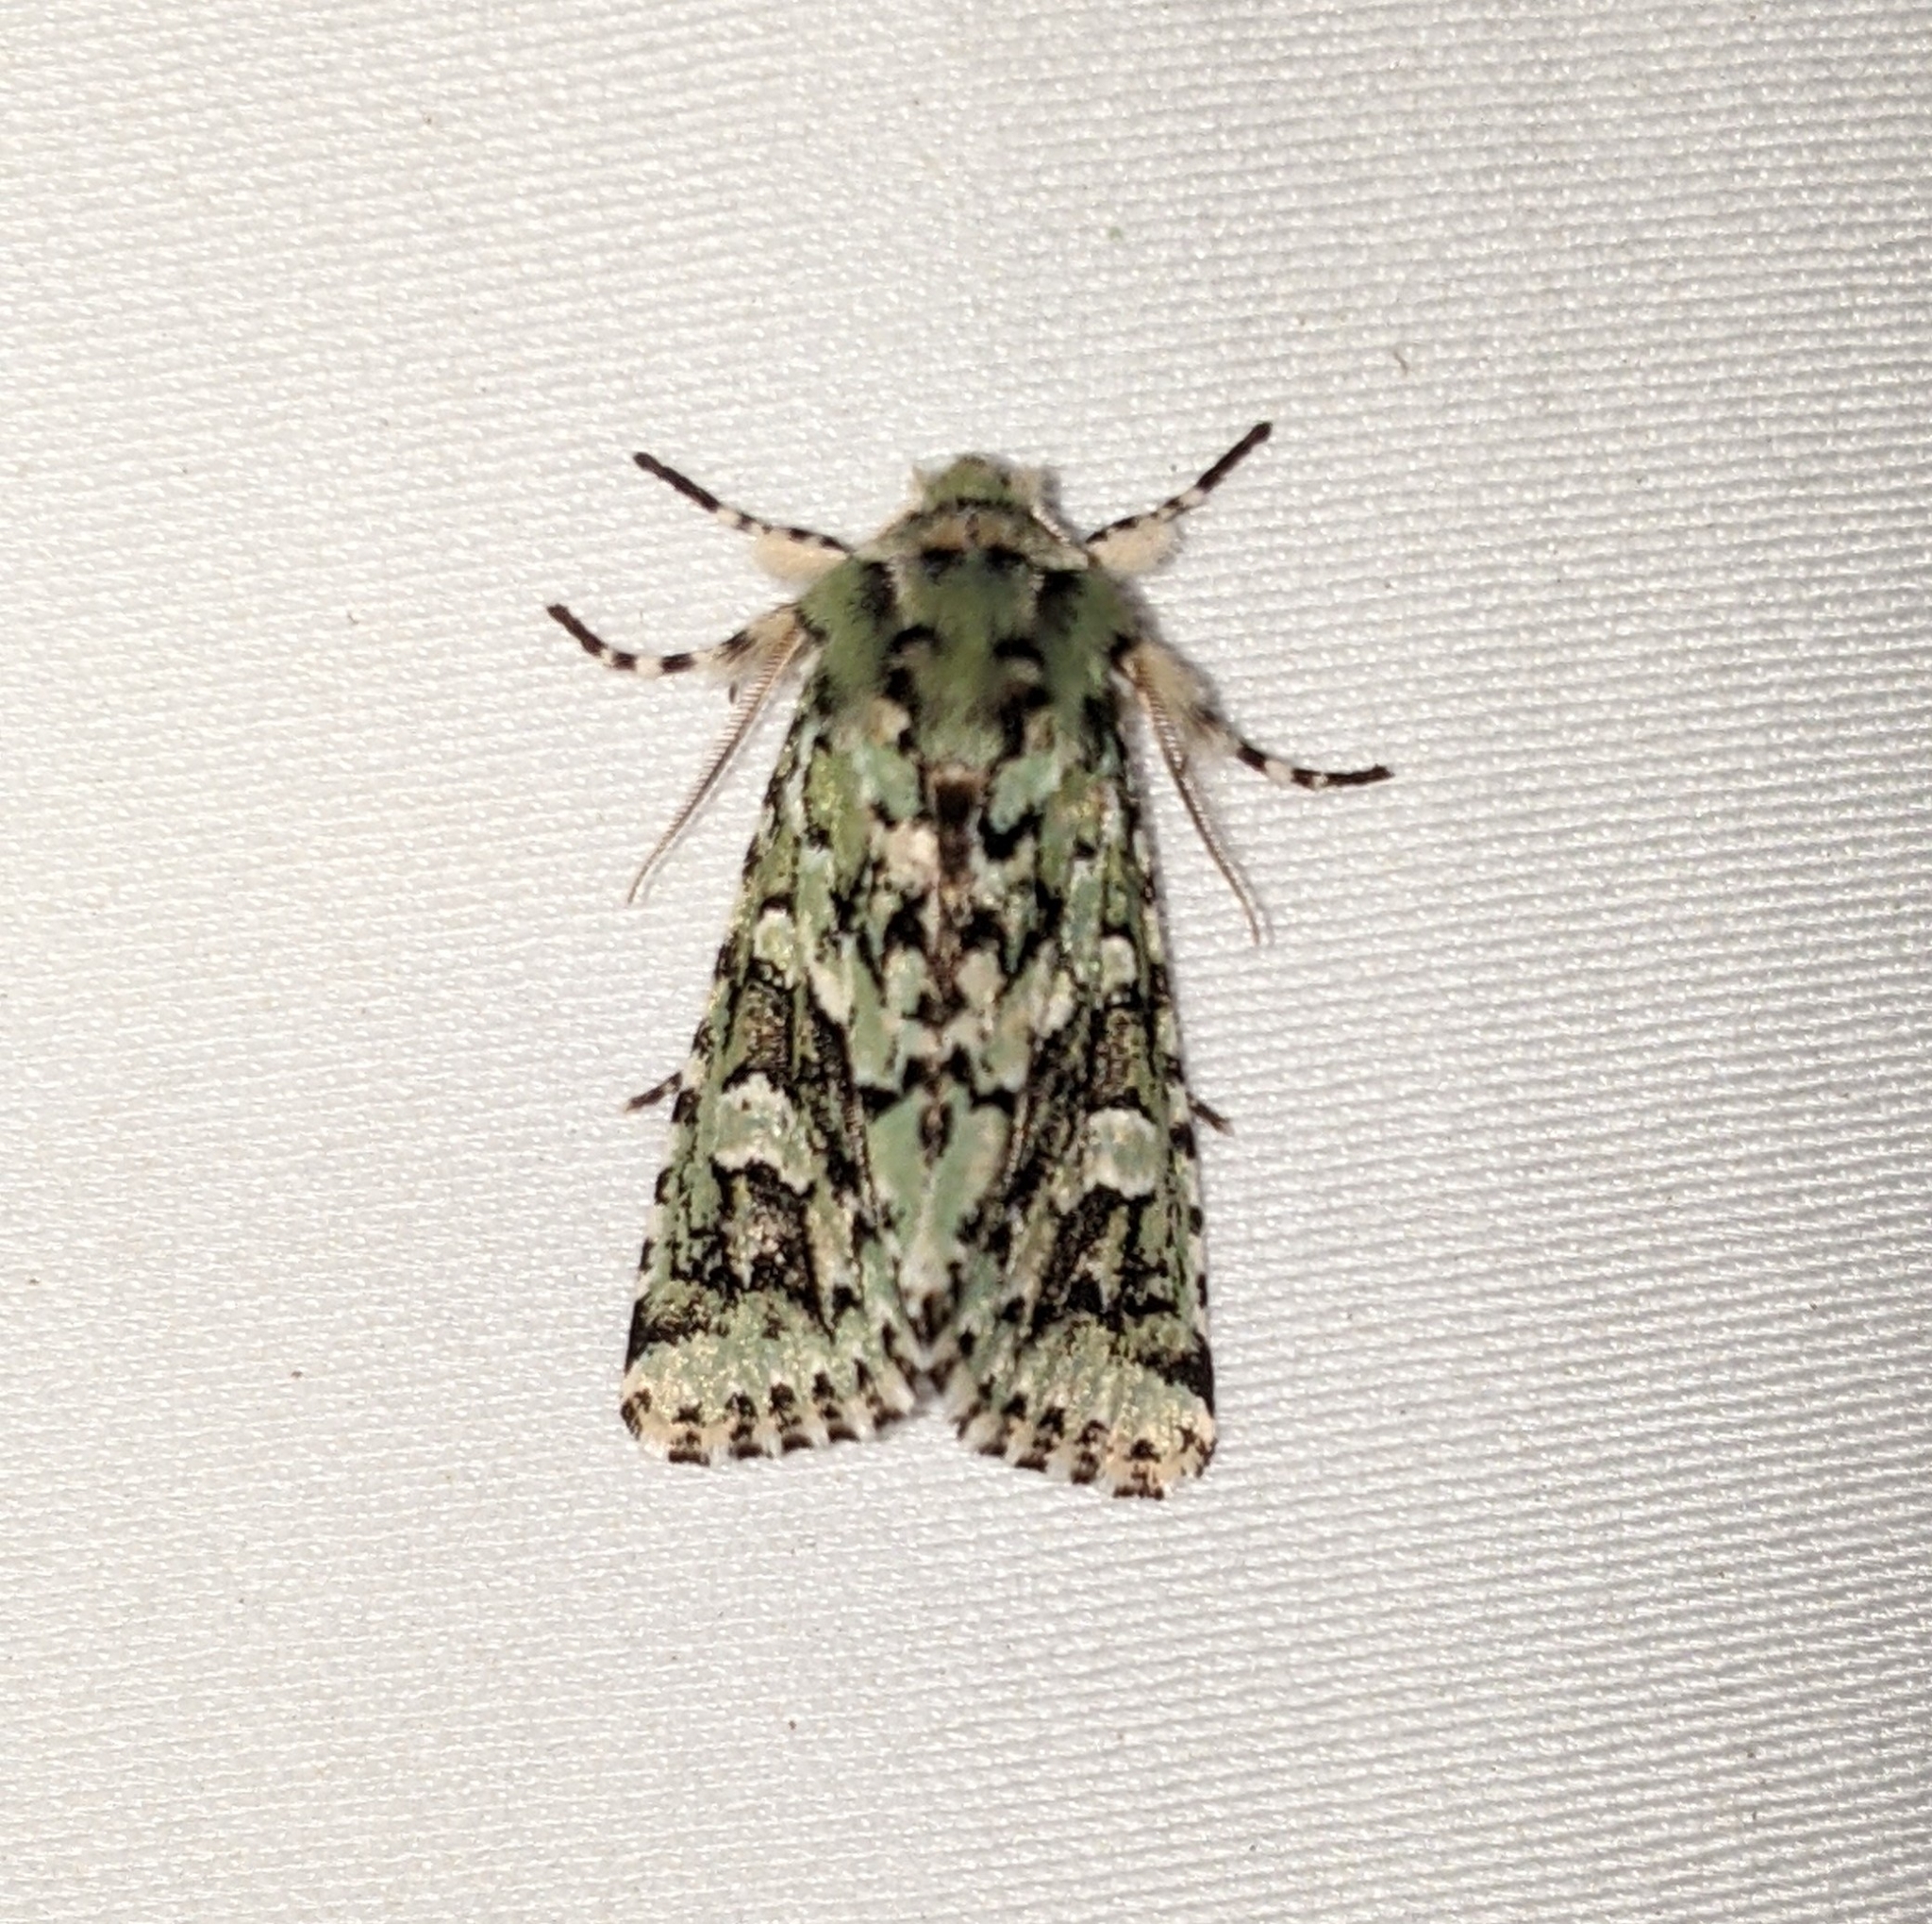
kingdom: Animalia
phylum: Arthropoda
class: Insecta
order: Lepidoptera
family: Noctuidae
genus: Feralia
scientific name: Feralia comstocki
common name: Comstock's sallow
